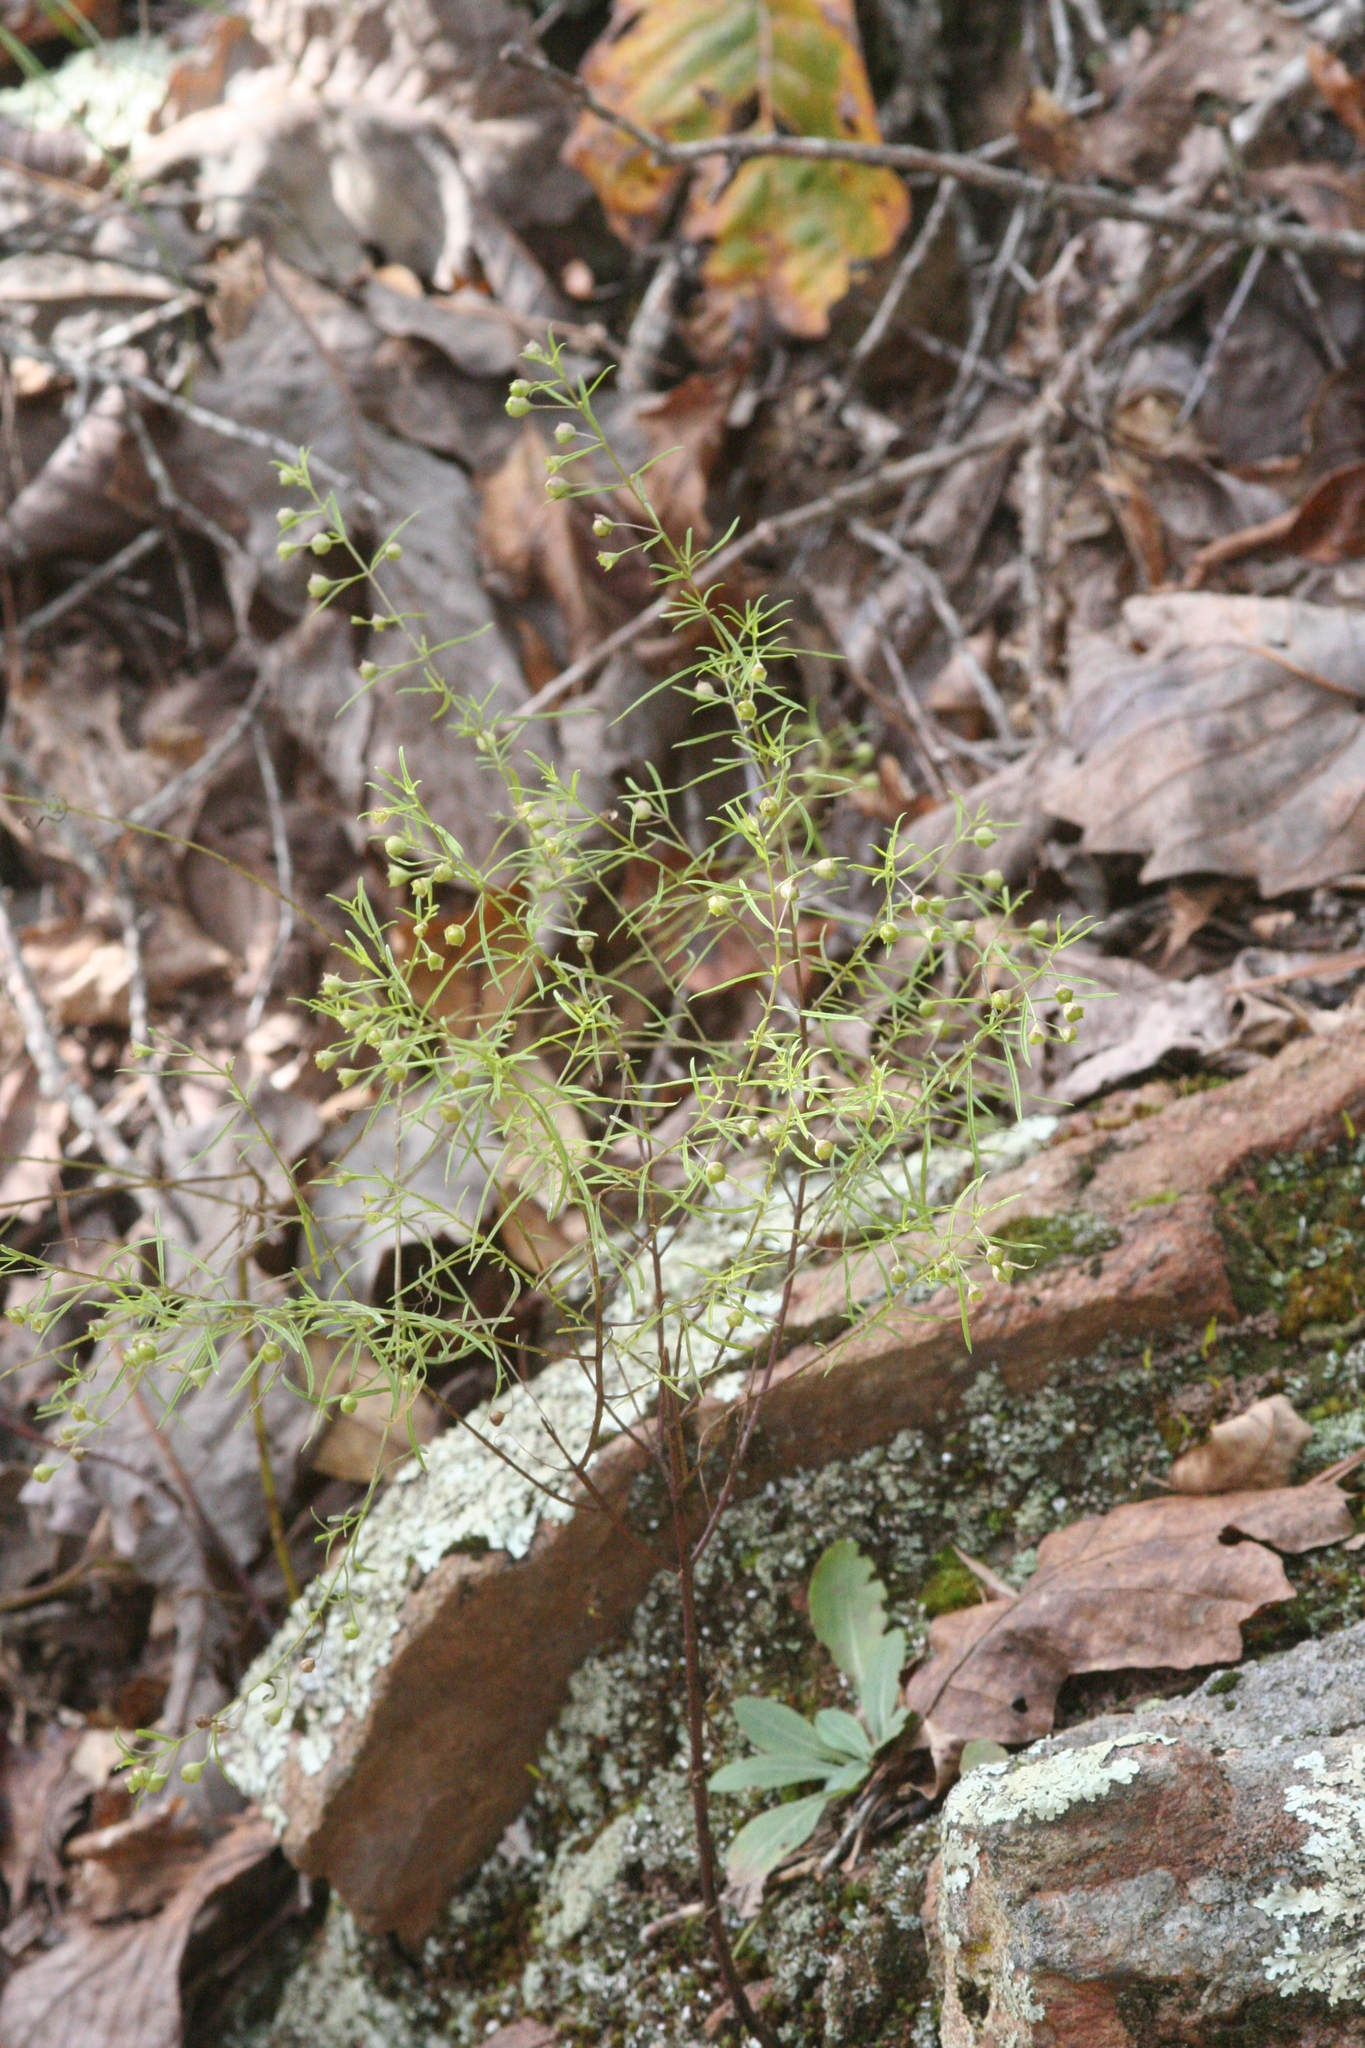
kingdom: Plantae
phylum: Tracheophyta
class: Magnoliopsida
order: Lamiales
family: Orobanchaceae
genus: Agalinis
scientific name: Agalinis tenuifolia
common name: Slender agalinis
